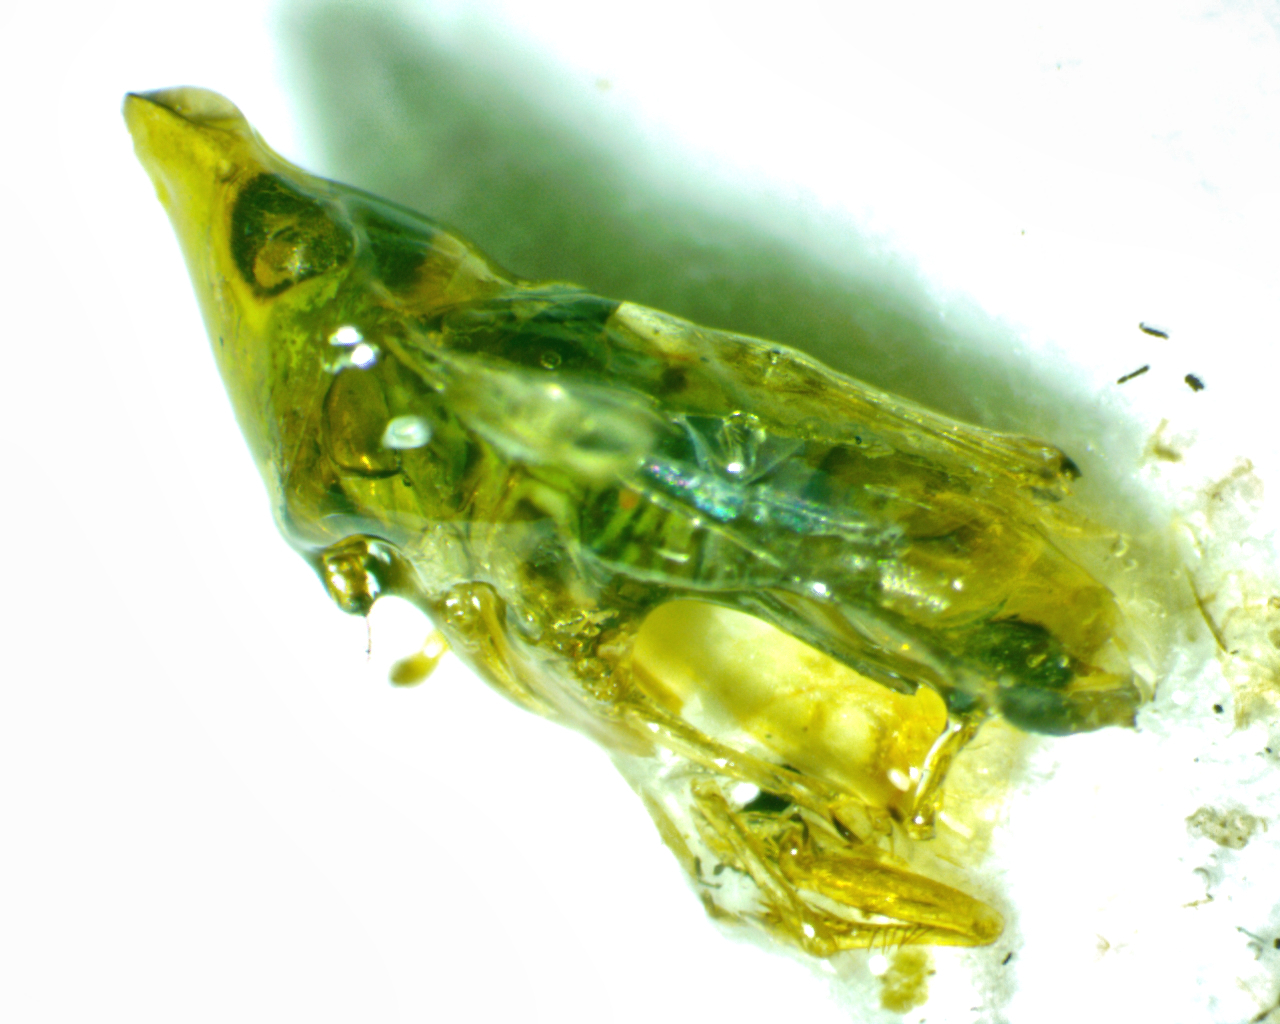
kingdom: Animalia
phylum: Arthropoda
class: Insecta
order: Hemiptera
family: Cicadellidae
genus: Japananus
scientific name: Japananus hyalinus
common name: The japanese maple leafhopper
